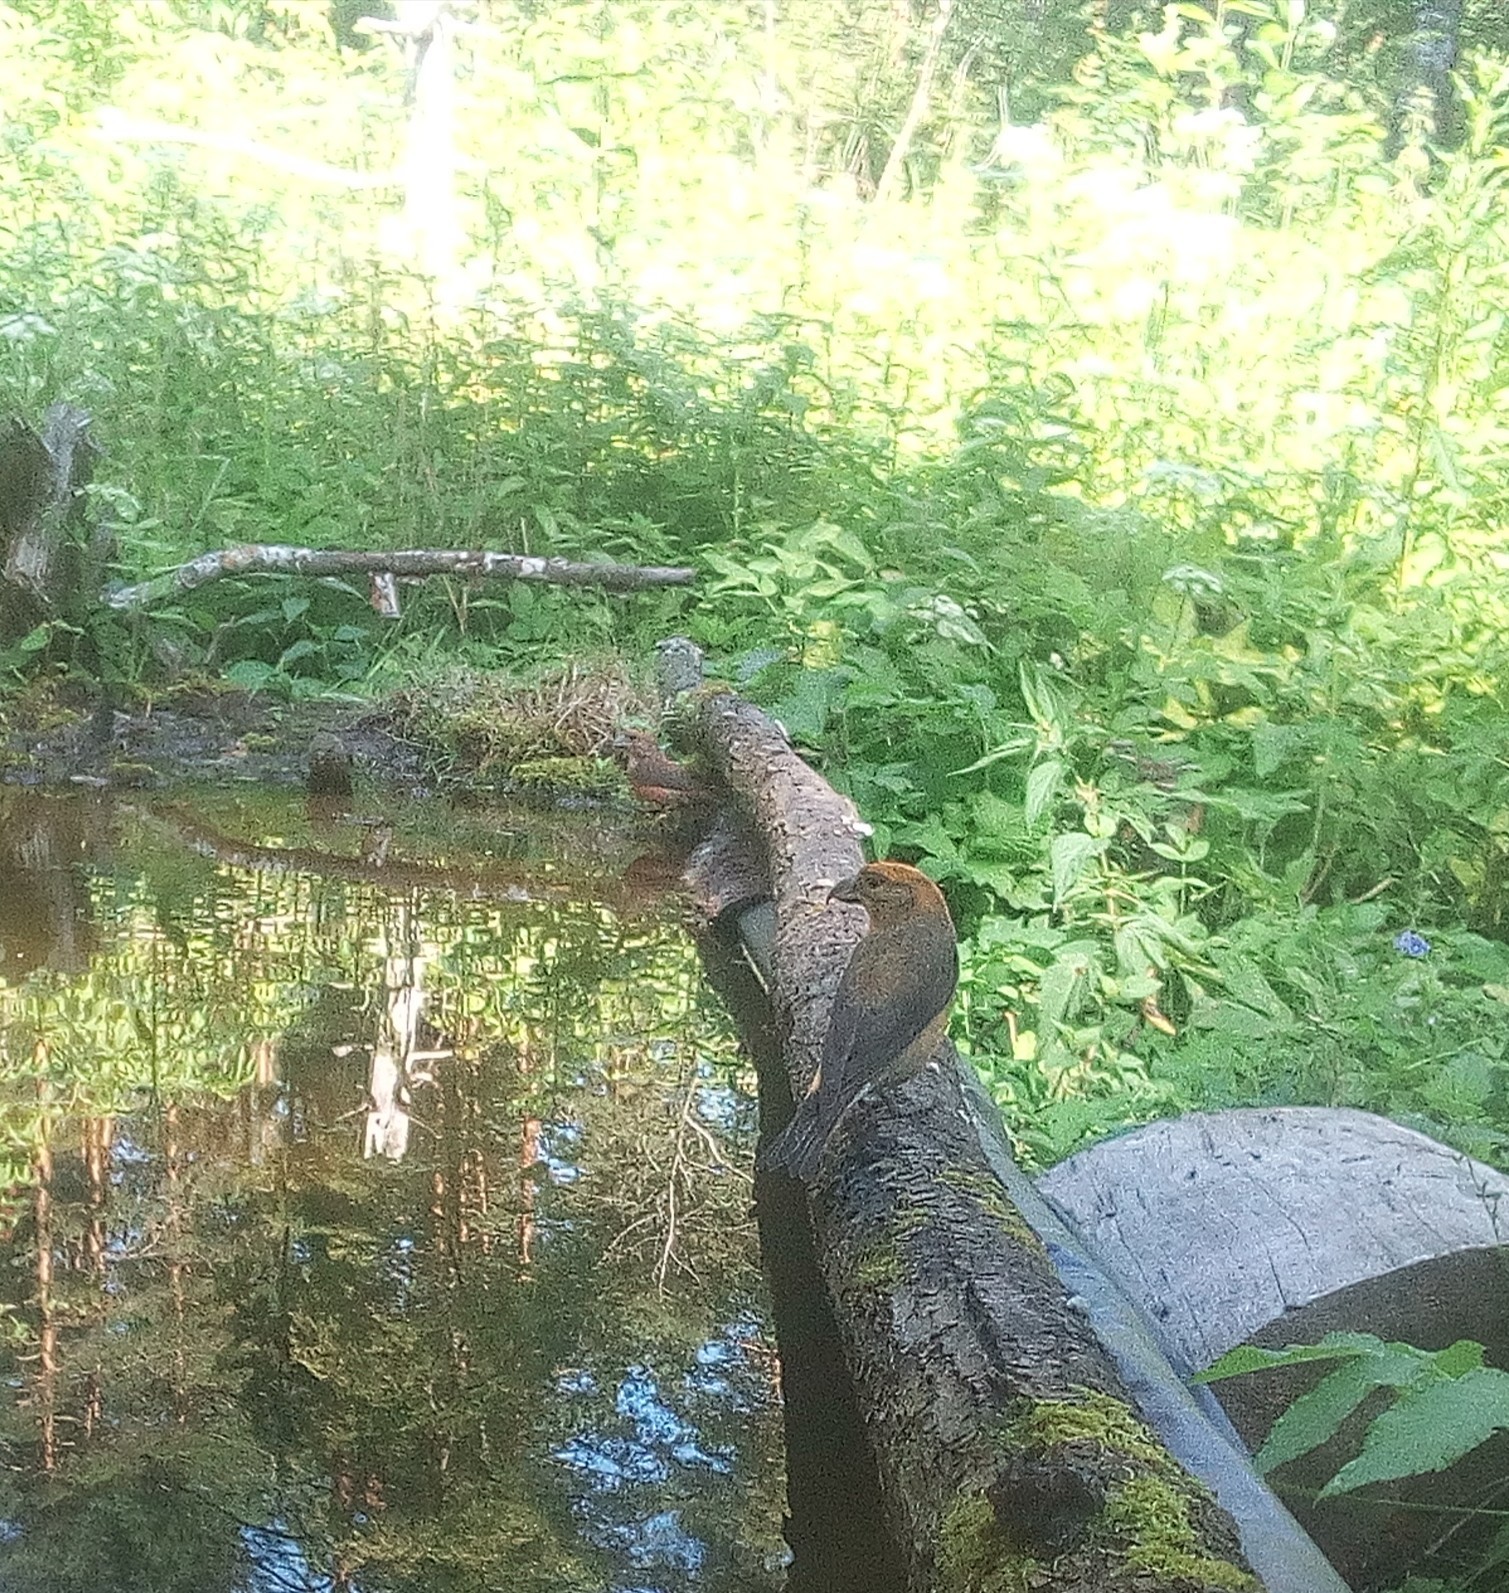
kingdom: Animalia
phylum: Chordata
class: Aves
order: Passeriformes
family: Fringillidae
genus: Loxia
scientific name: Loxia curvirostra
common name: Red crossbill
